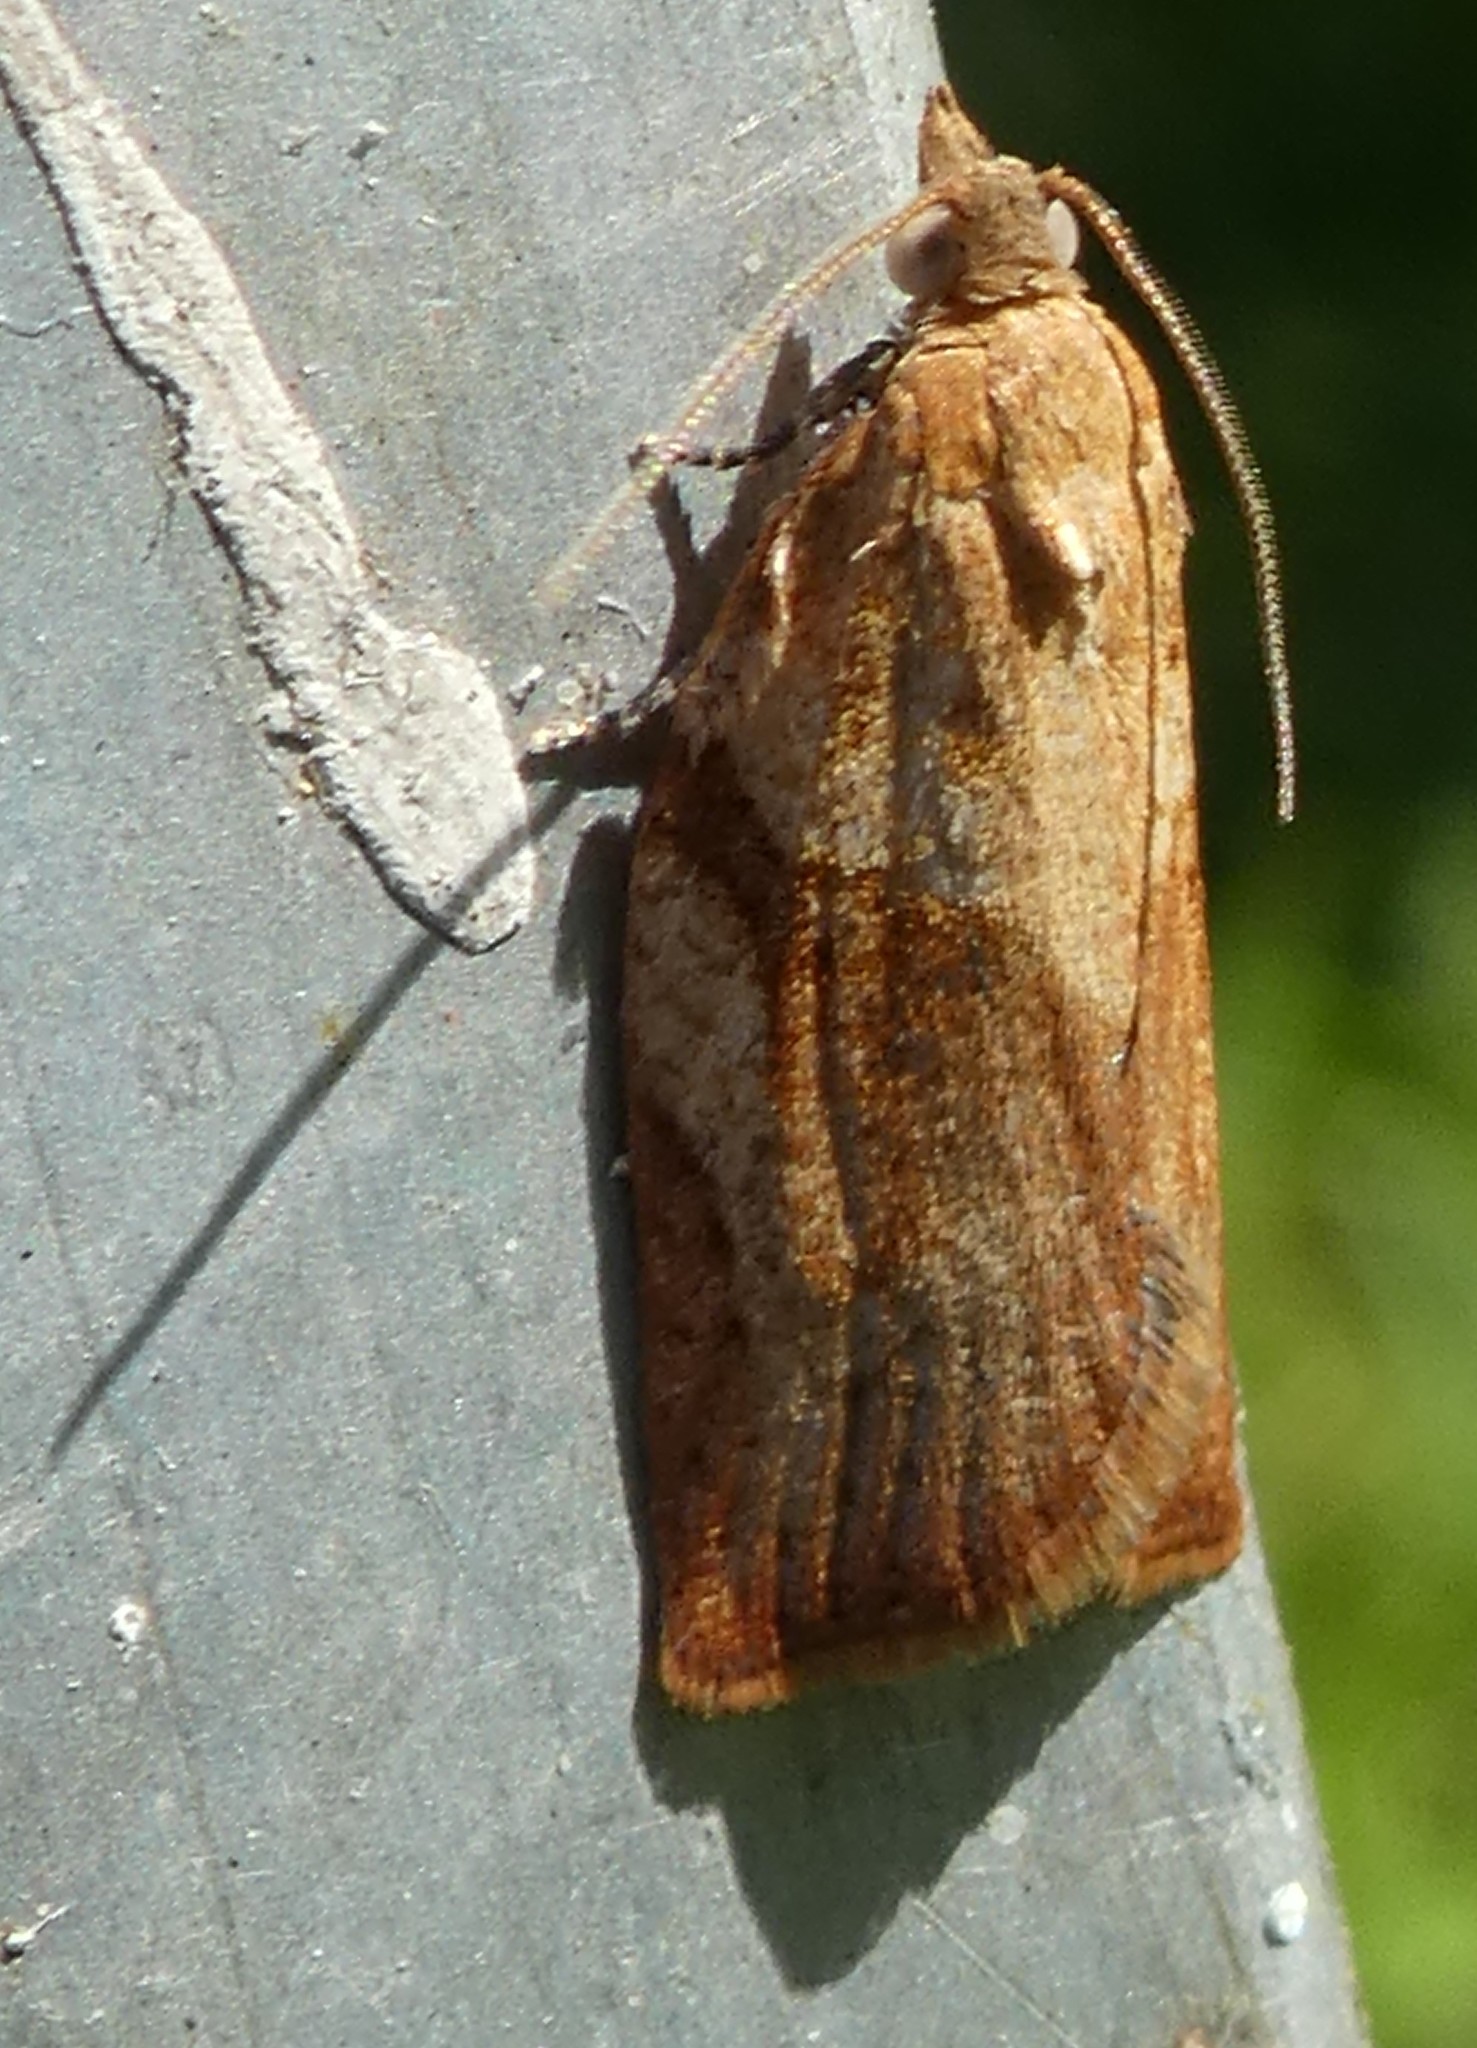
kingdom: Animalia
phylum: Arthropoda
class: Insecta
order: Lepidoptera
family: Tortricidae
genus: Epiphyas
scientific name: Epiphyas postvittana
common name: Light brown apple moth
